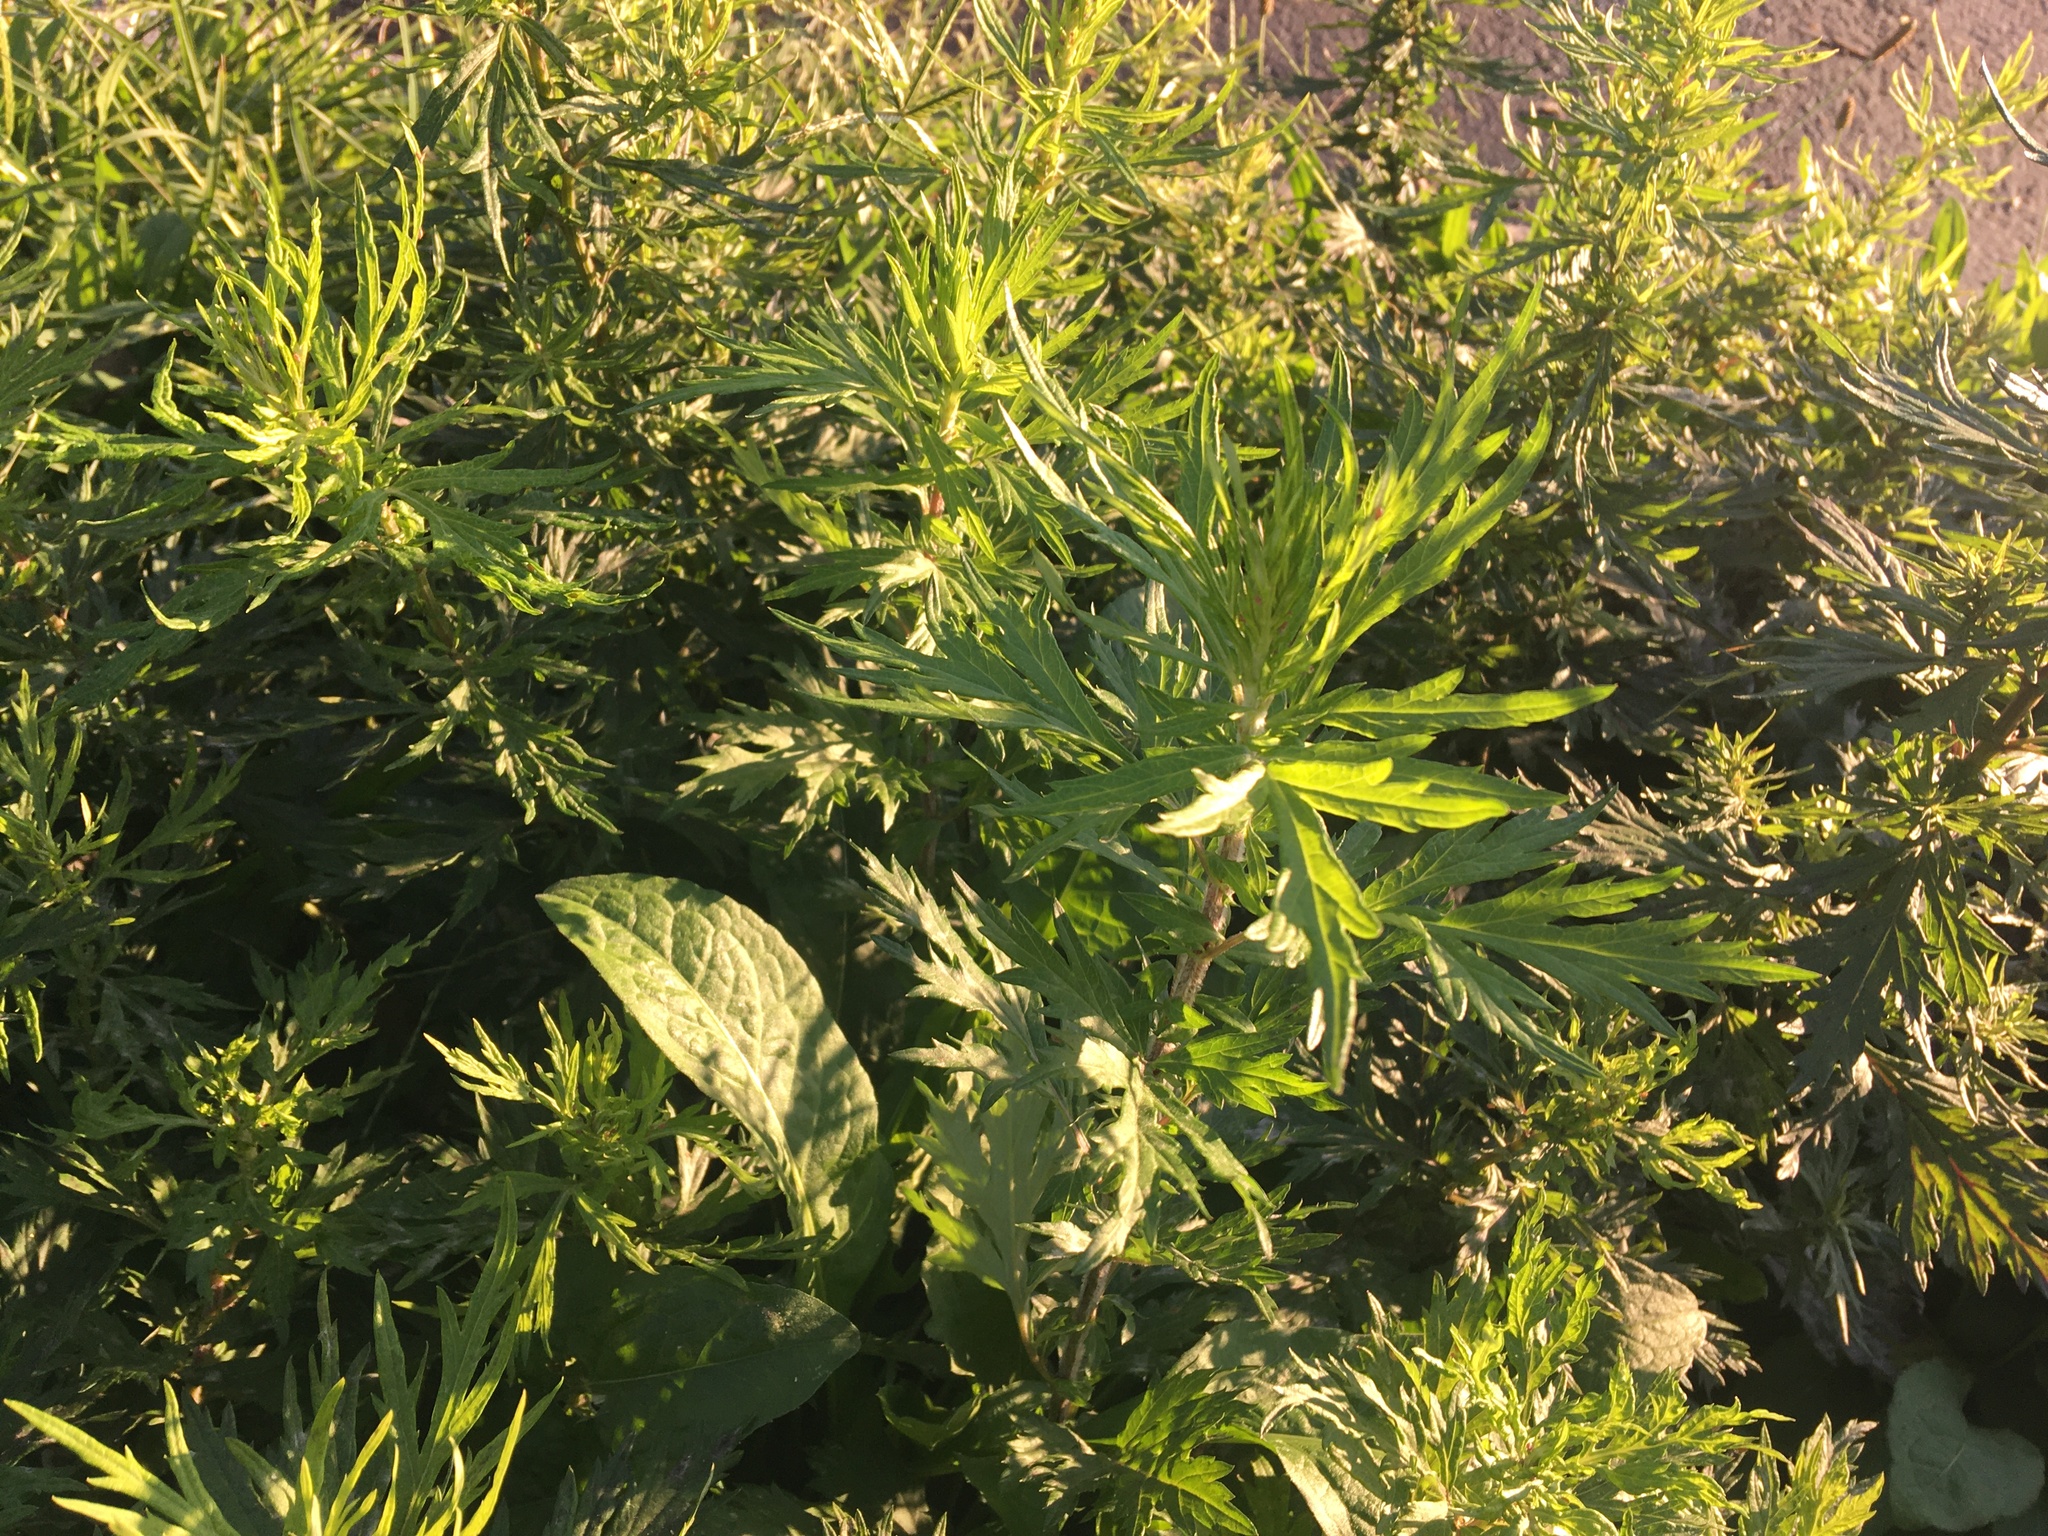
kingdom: Plantae
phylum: Tracheophyta
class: Magnoliopsida
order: Asterales
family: Asteraceae
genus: Artemisia
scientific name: Artemisia vulgaris
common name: Mugwort
